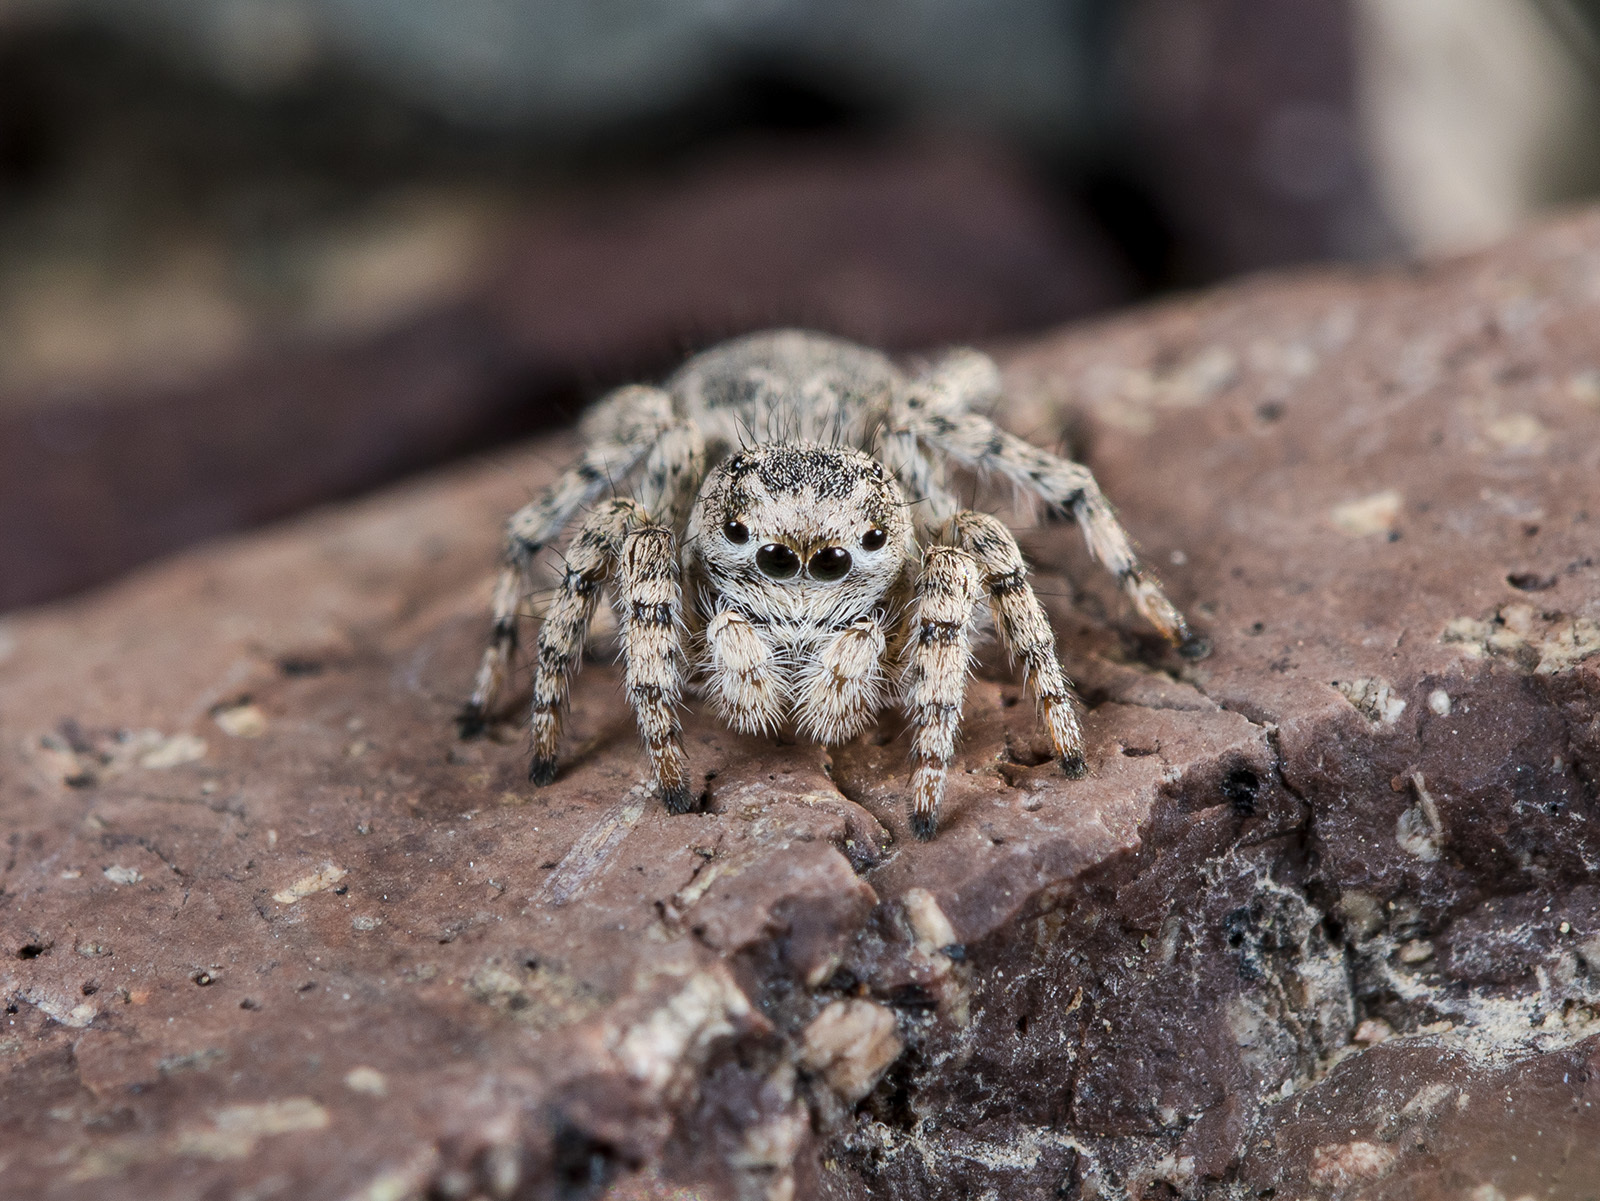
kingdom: Animalia
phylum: Arthropoda
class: Arachnida
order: Araneae
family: Salticidae
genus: Aelurillus
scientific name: Aelurillus dubatolovi
